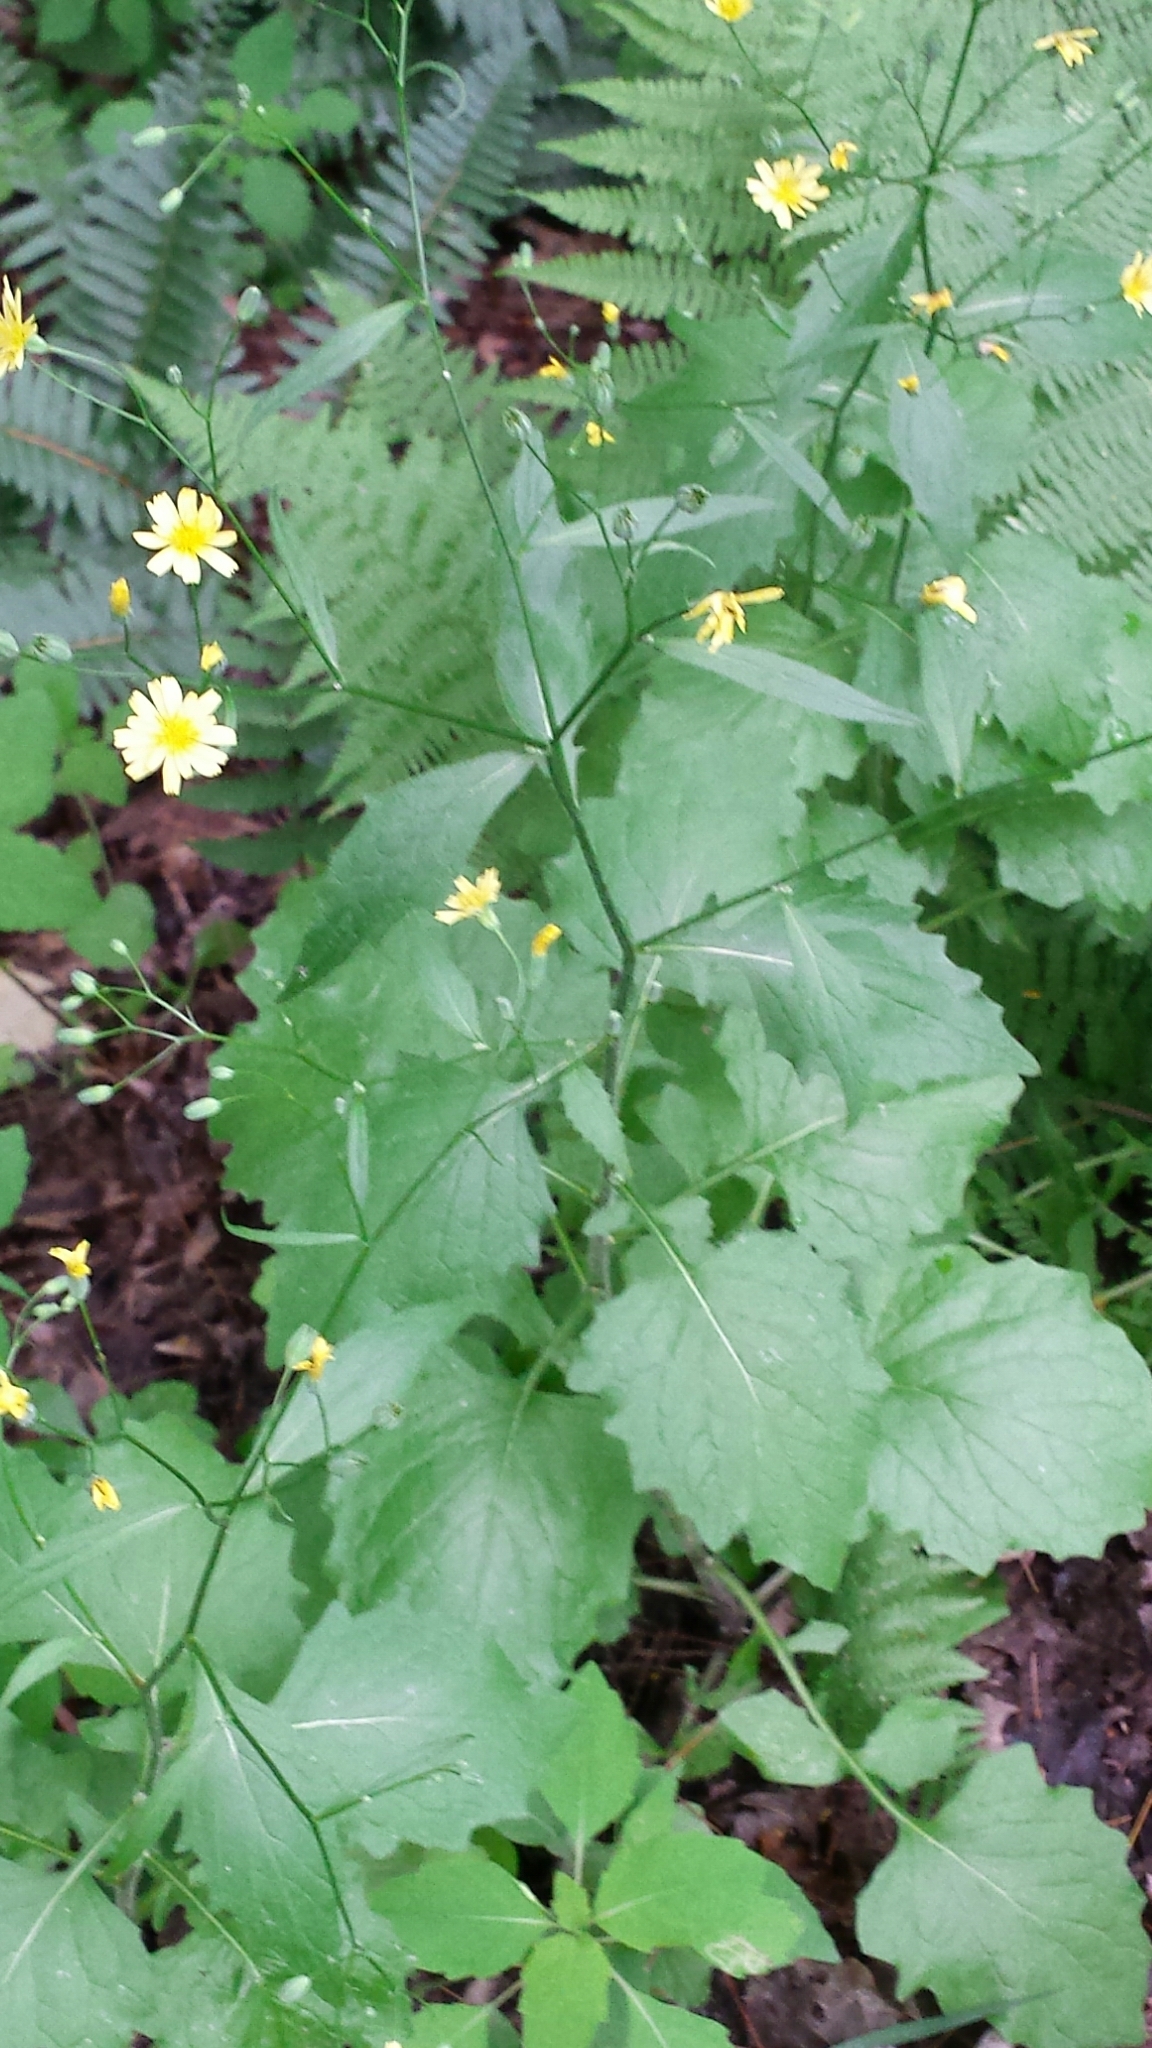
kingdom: Plantae
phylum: Tracheophyta
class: Magnoliopsida
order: Asterales
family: Asteraceae
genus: Lapsana
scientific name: Lapsana communis
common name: Nipplewort
